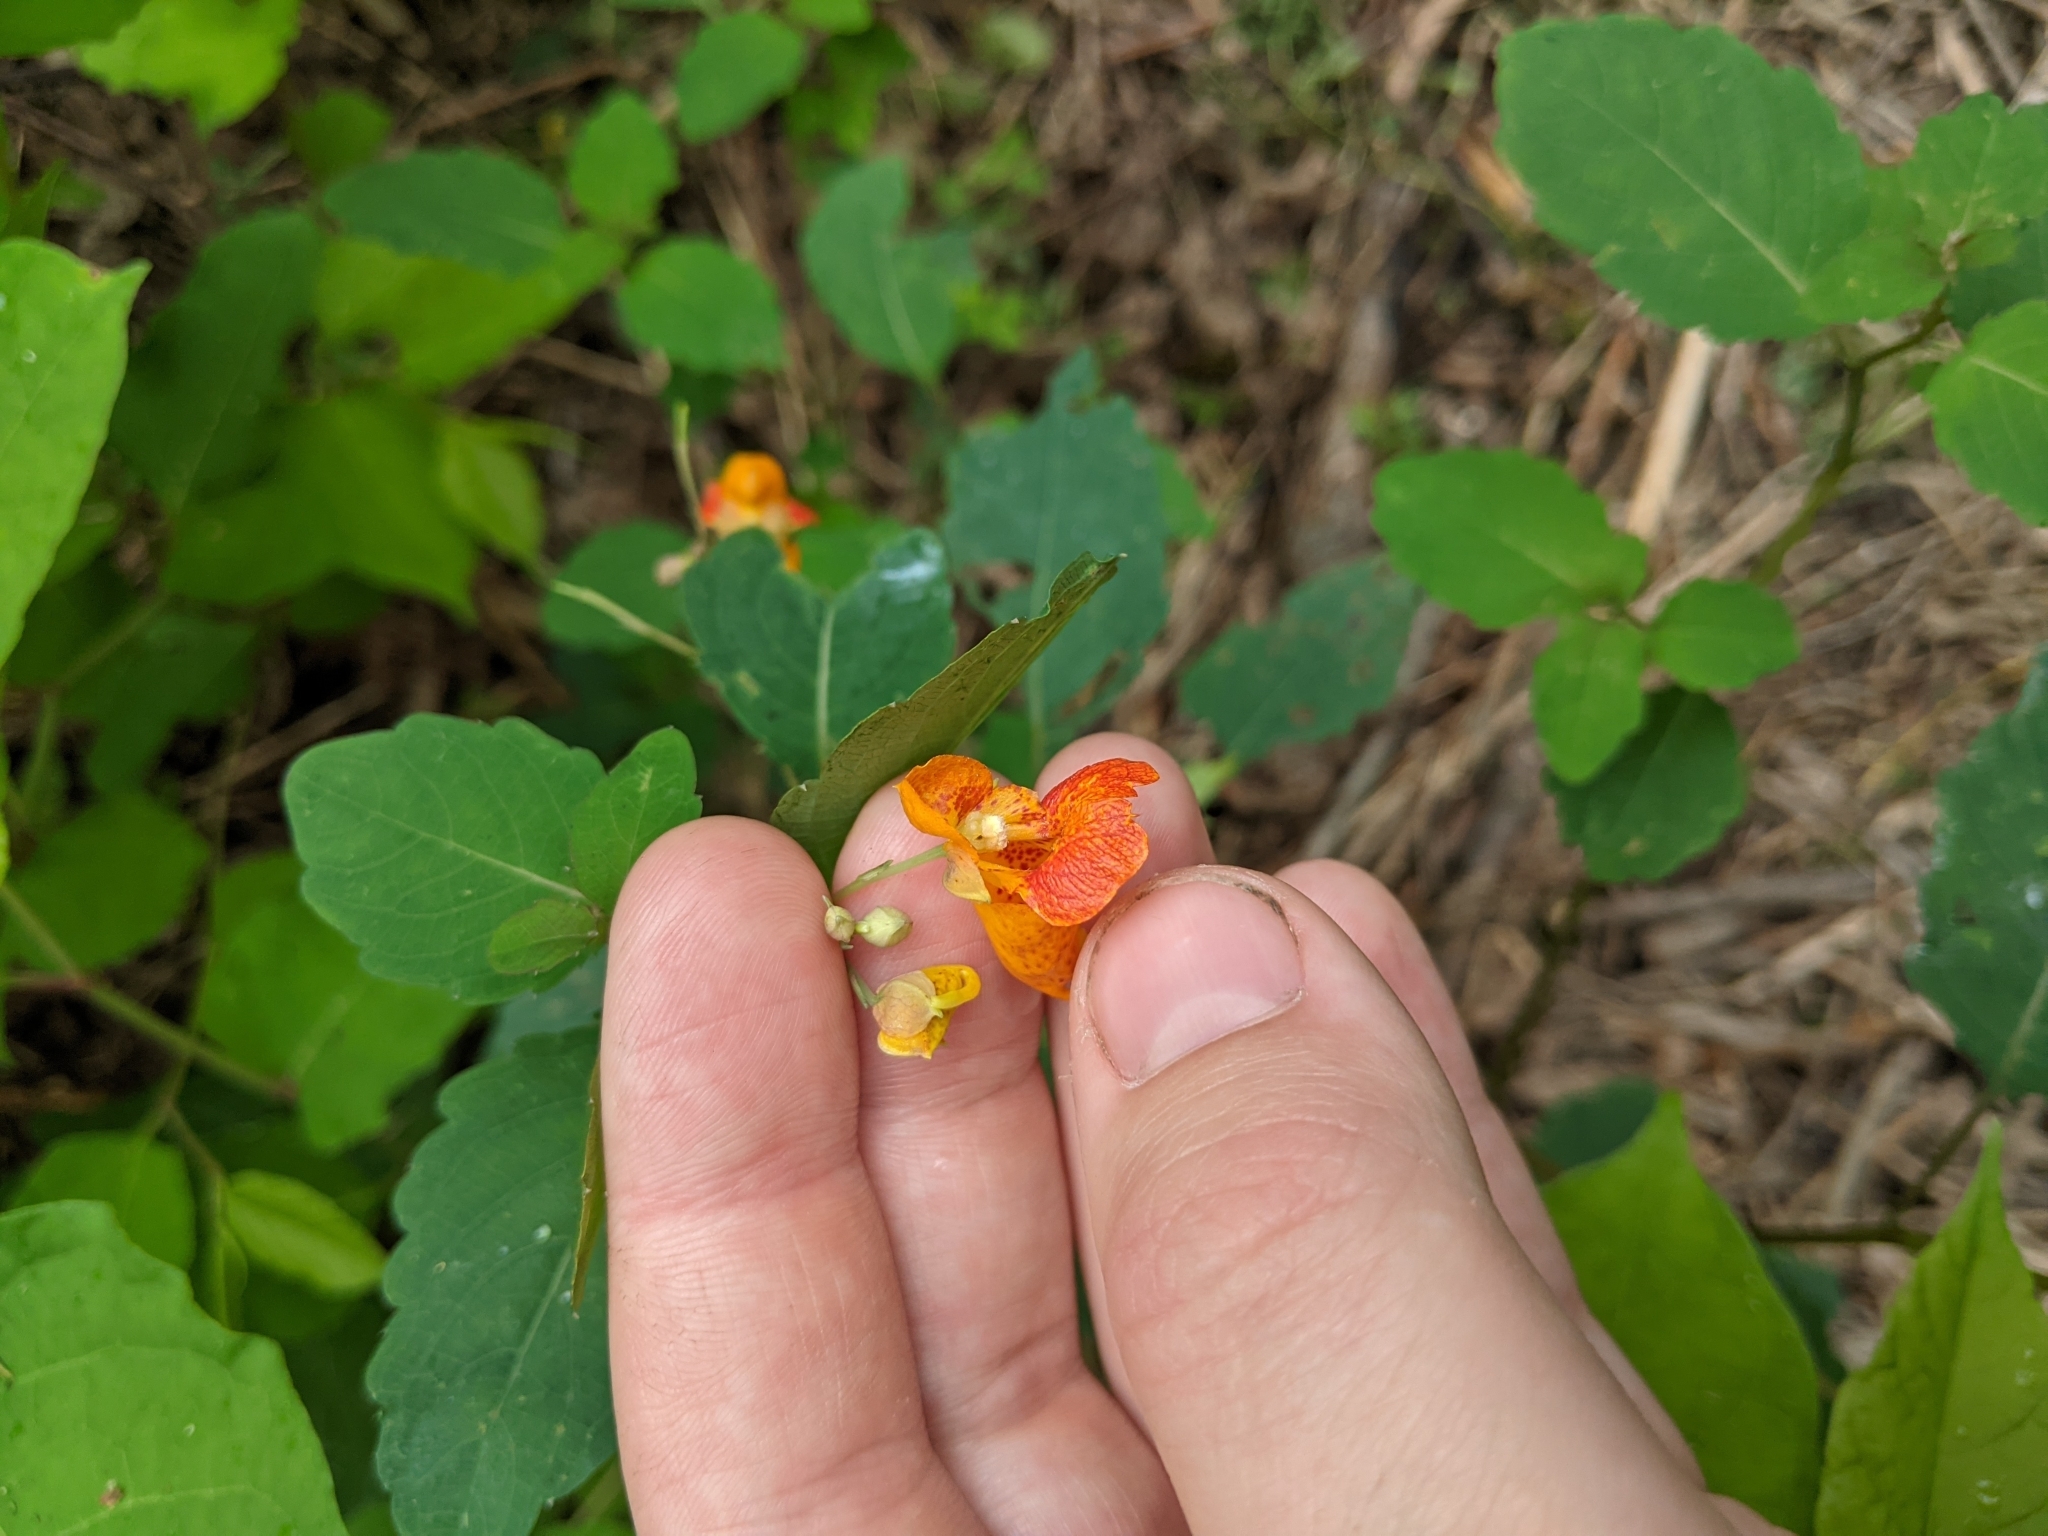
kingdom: Plantae
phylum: Tracheophyta
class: Magnoliopsida
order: Ericales
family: Balsaminaceae
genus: Impatiens
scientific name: Impatiens capensis
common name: Orange balsam
